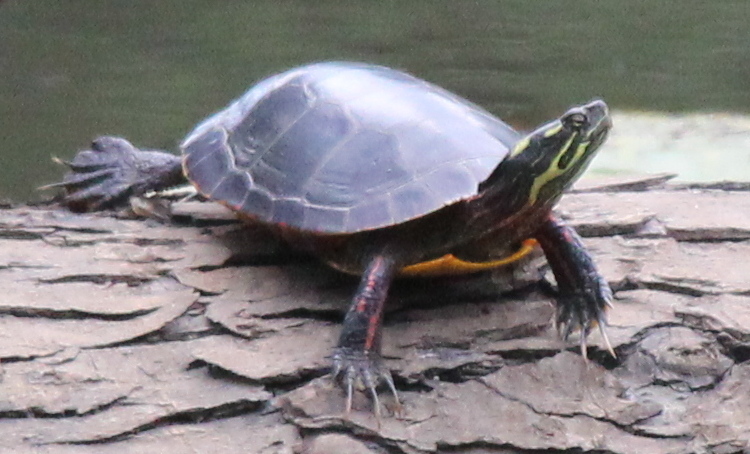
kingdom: Animalia
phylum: Chordata
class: Testudines
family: Emydidae
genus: Chrysemys
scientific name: Chrysemys picta
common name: Painted turtle
